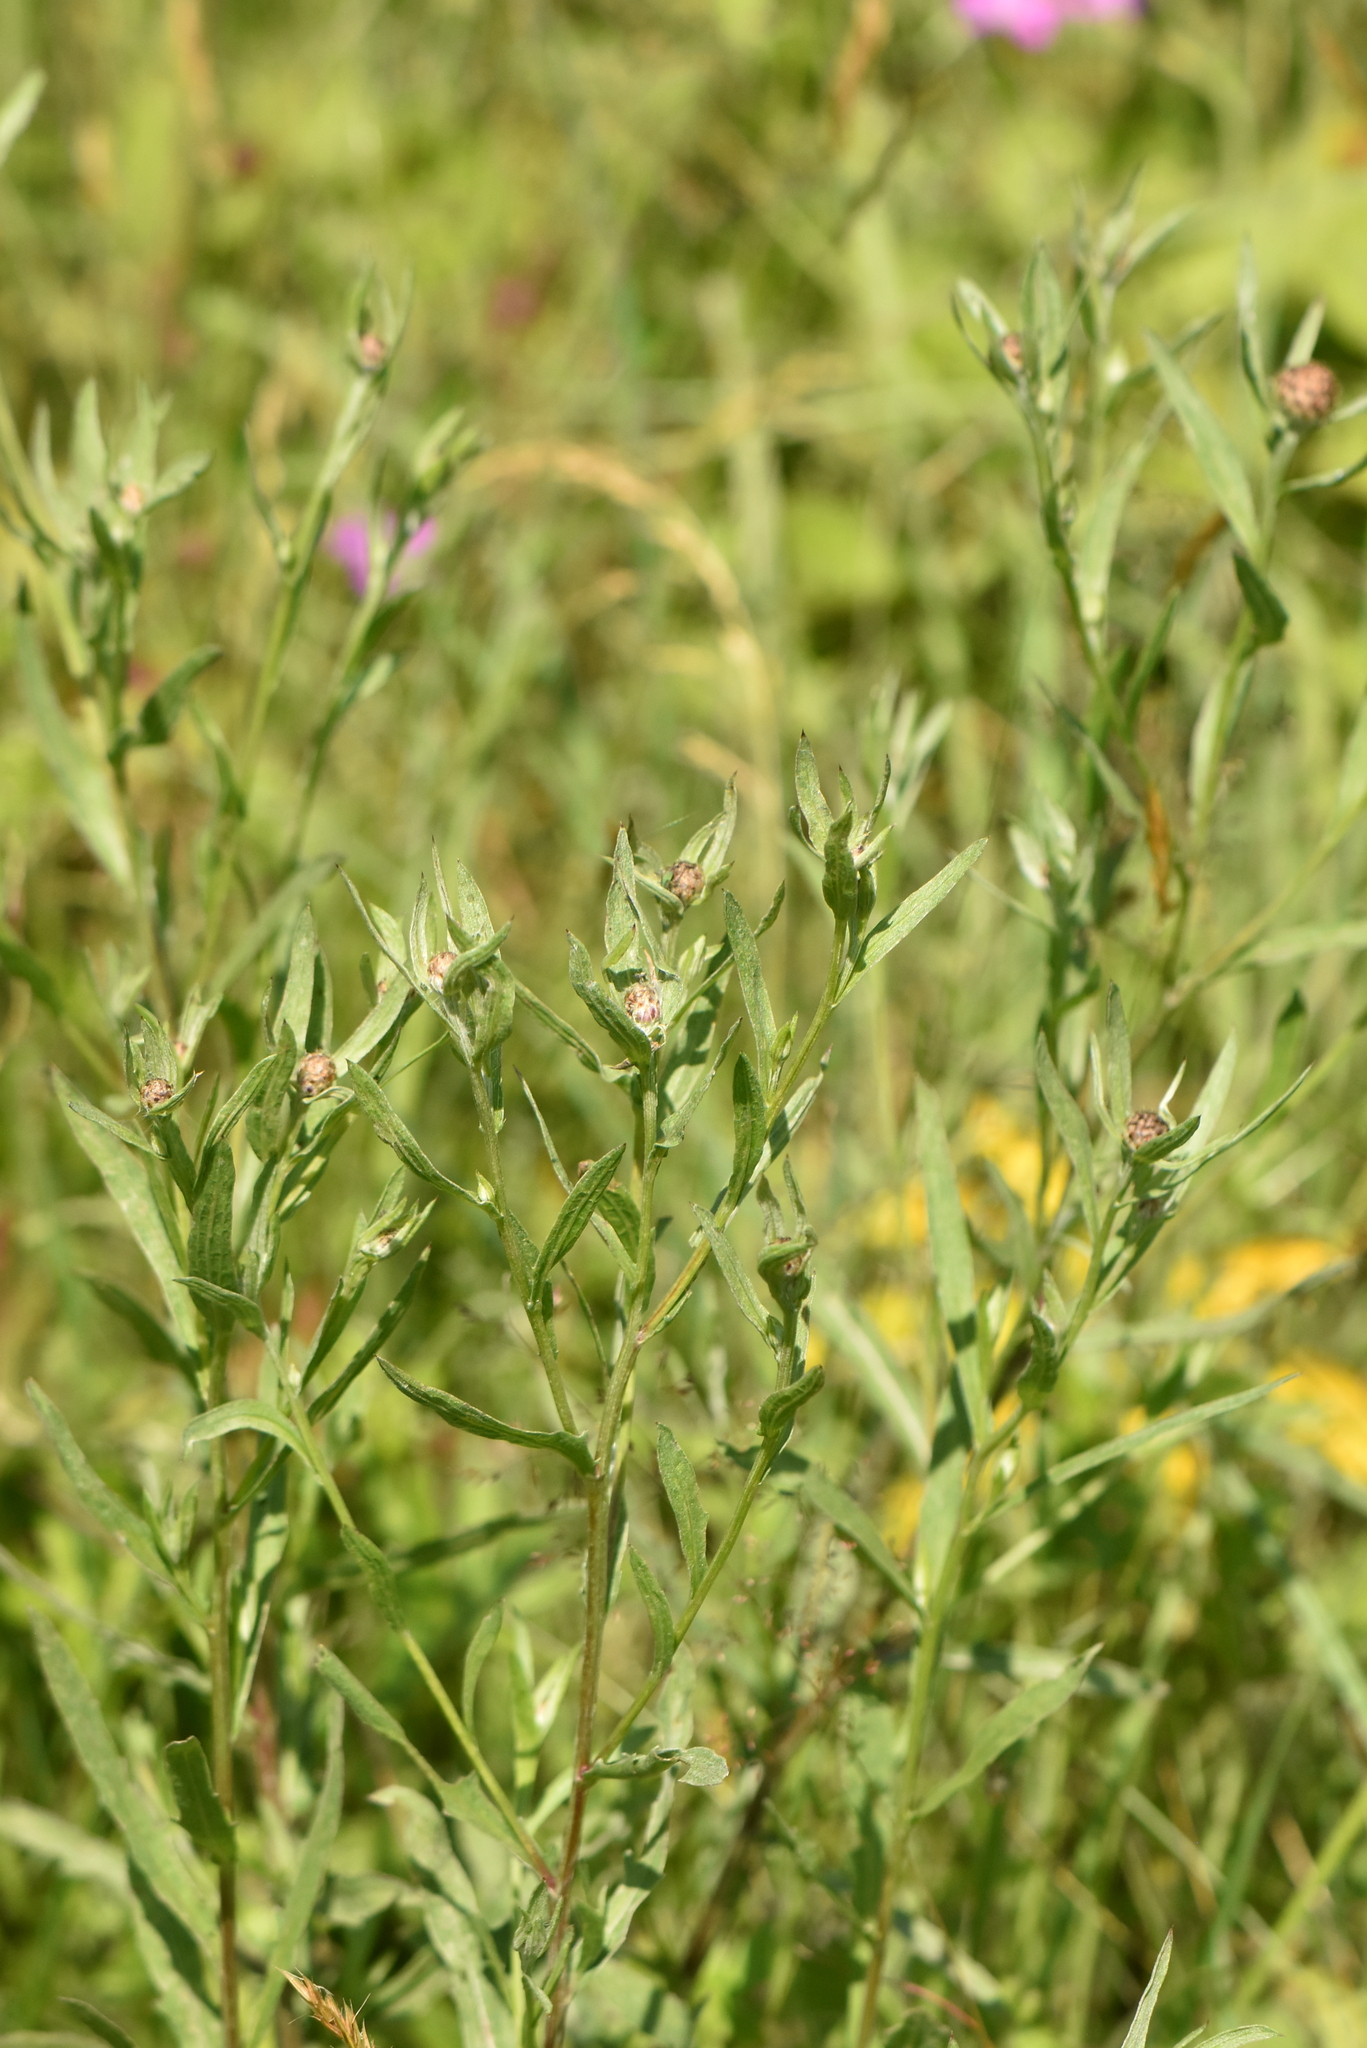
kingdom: Plantae
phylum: Tracheophyta
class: Magnoliopsida
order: Asterales
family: Asteraceae
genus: Centaurea
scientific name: Centaurea jacea
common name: Brown knapweed
